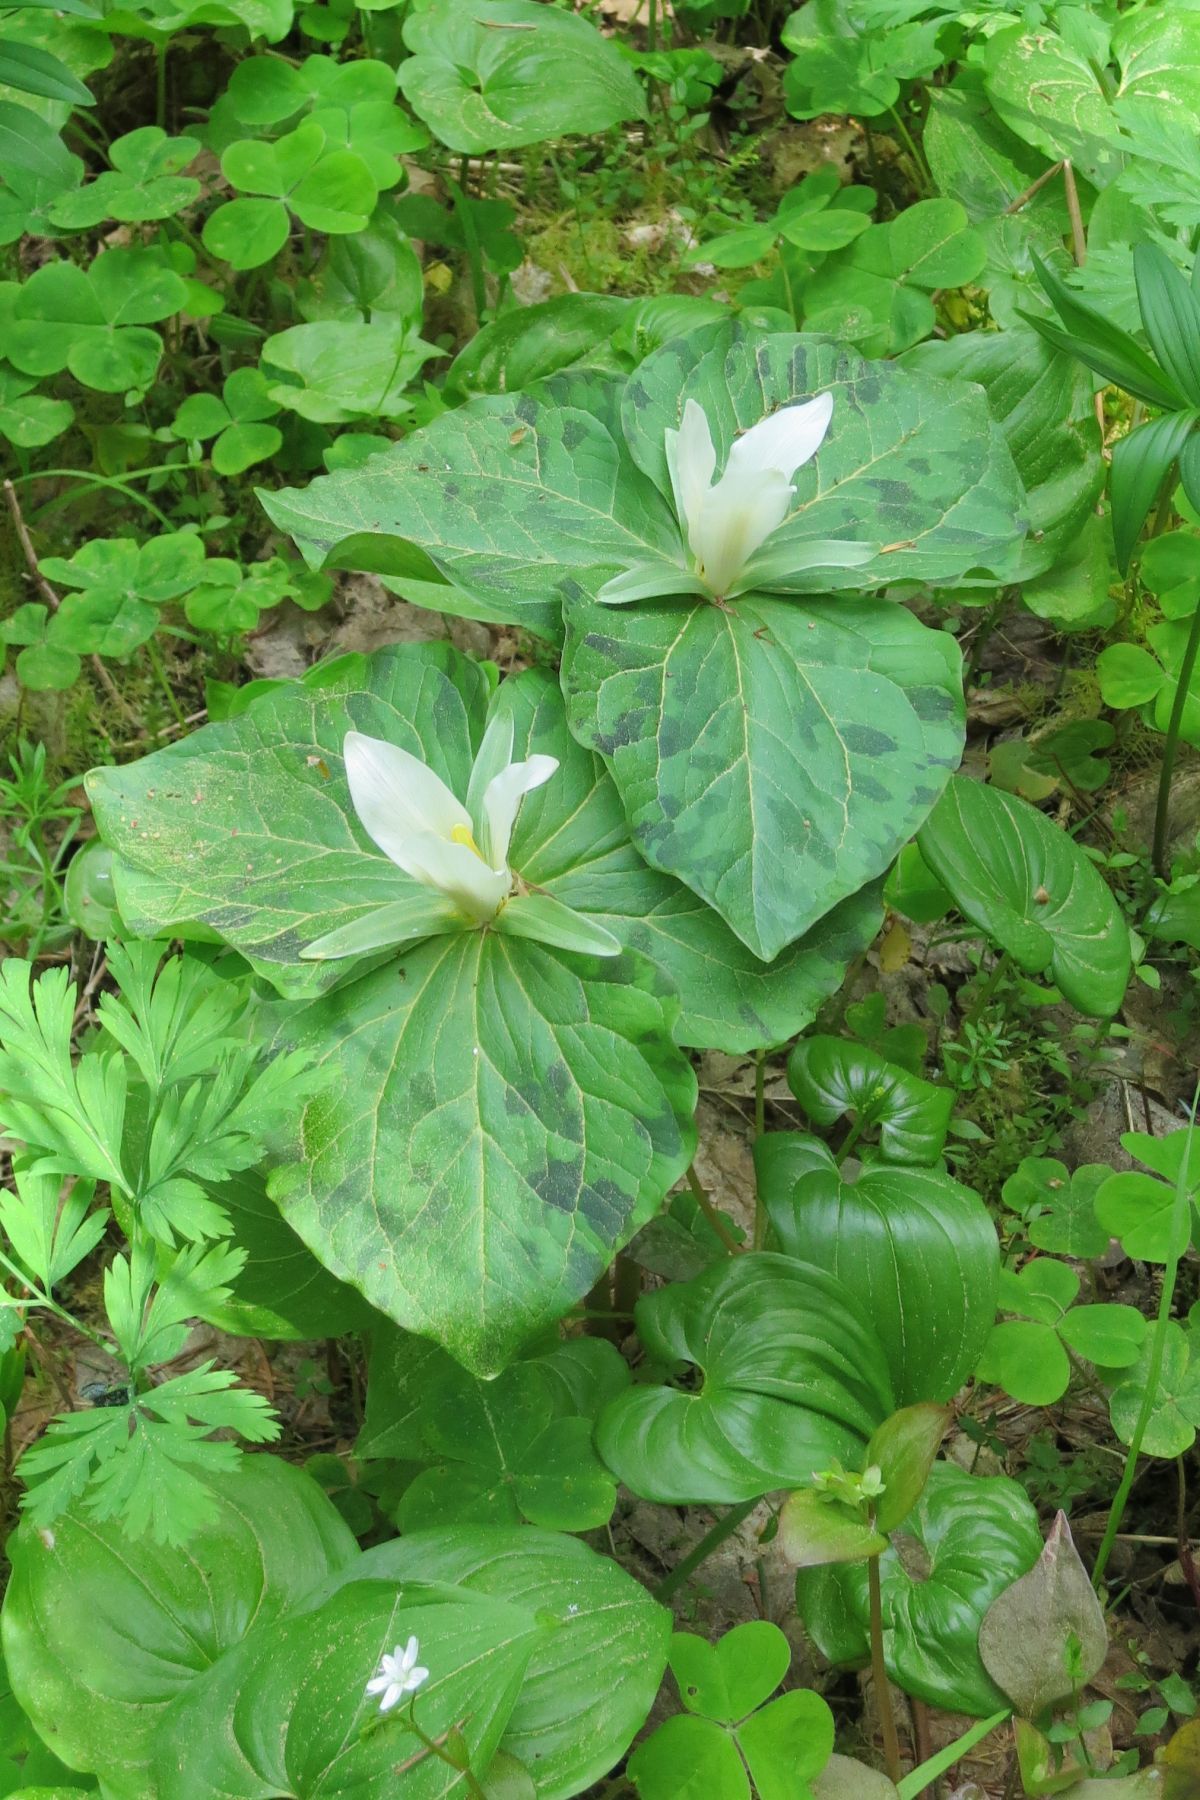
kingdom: Plantae
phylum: Tracheophyta
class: Liliopsida
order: Liliales
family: Melanthiaceae
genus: Trillium
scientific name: Trillium albidum
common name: Freeman's trillium
